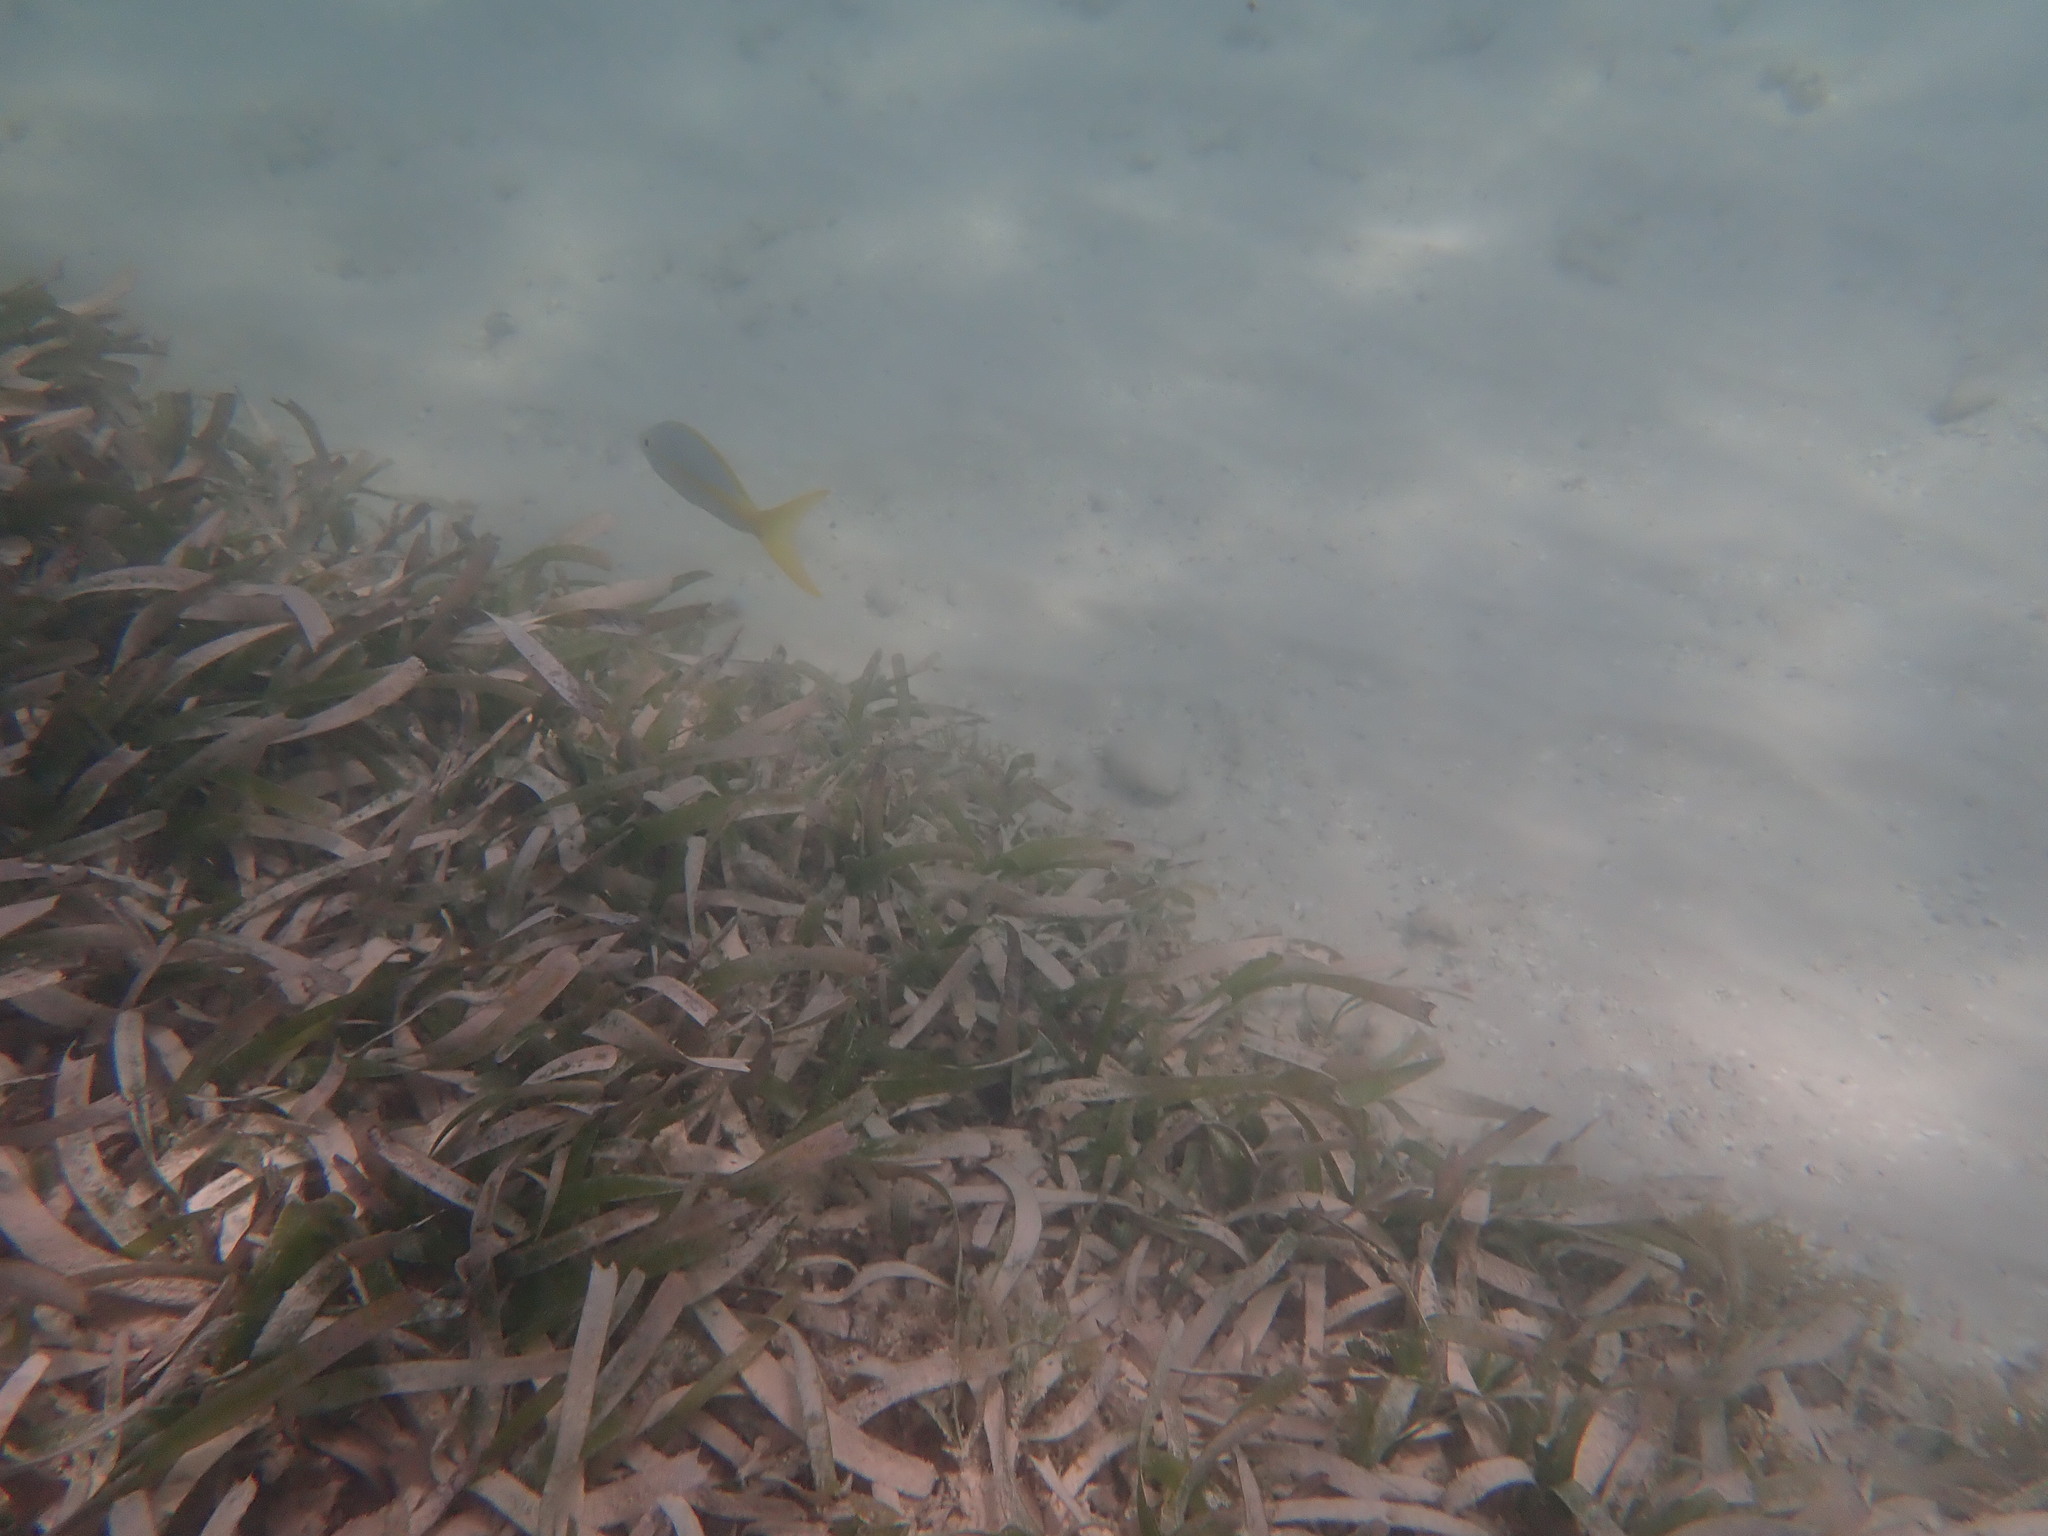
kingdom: Animalia
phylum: Chordata
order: Perciformes
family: Lutjanidae
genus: Ocyurus
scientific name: Ocyurus chrysurus
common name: Yellowtail snapper
